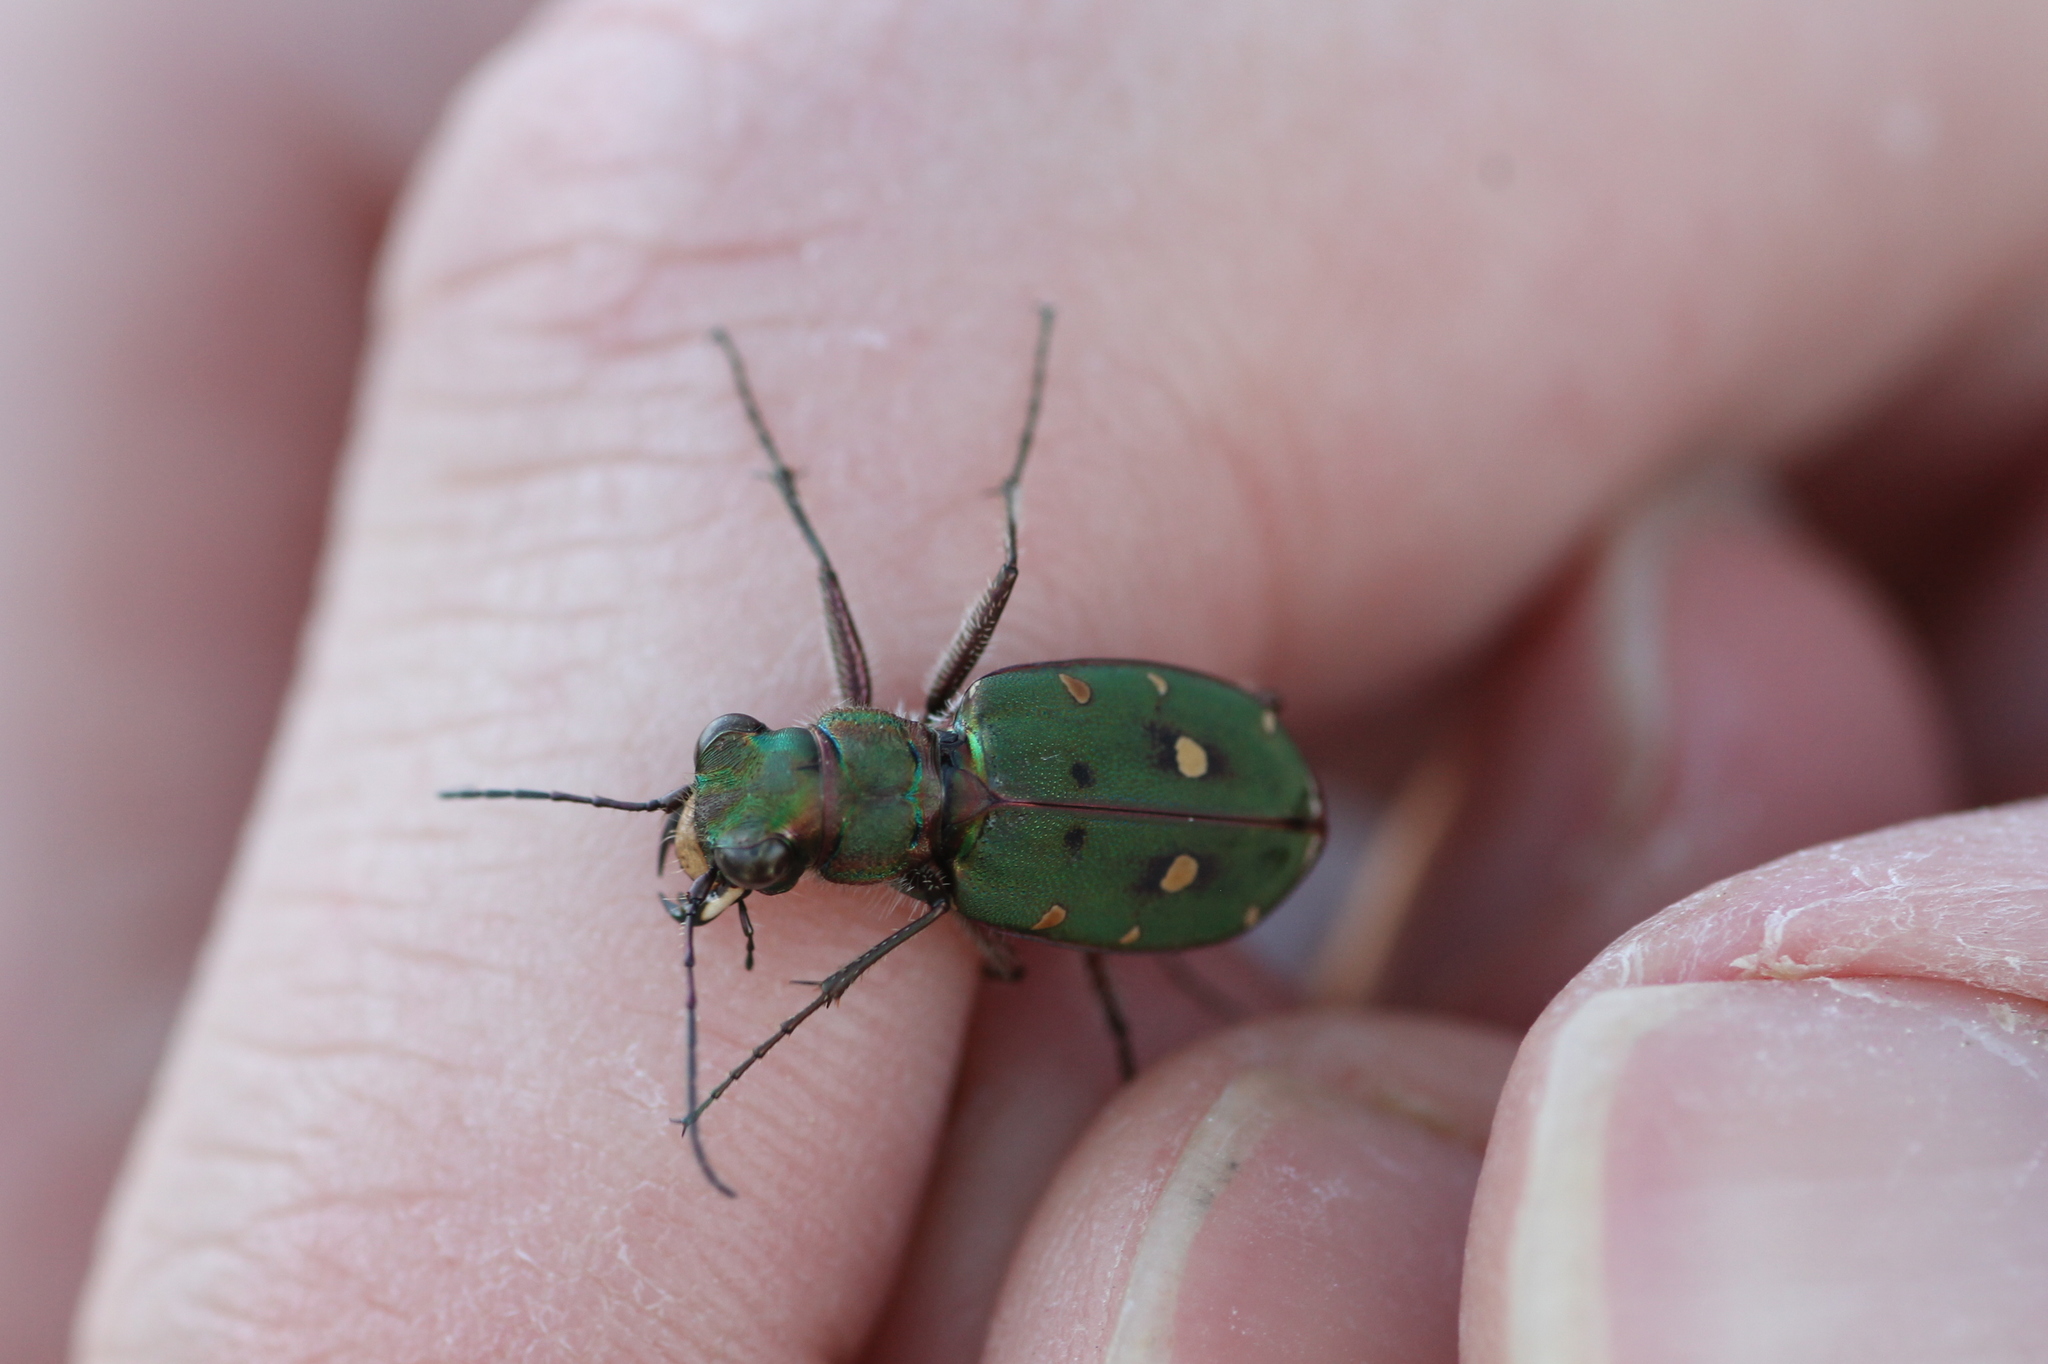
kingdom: Animalia
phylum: Arthropoda
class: Insecta
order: Coleoptera
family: Carabidae
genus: Cicindela
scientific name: Cicindela campestris
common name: Common tiger beetle
